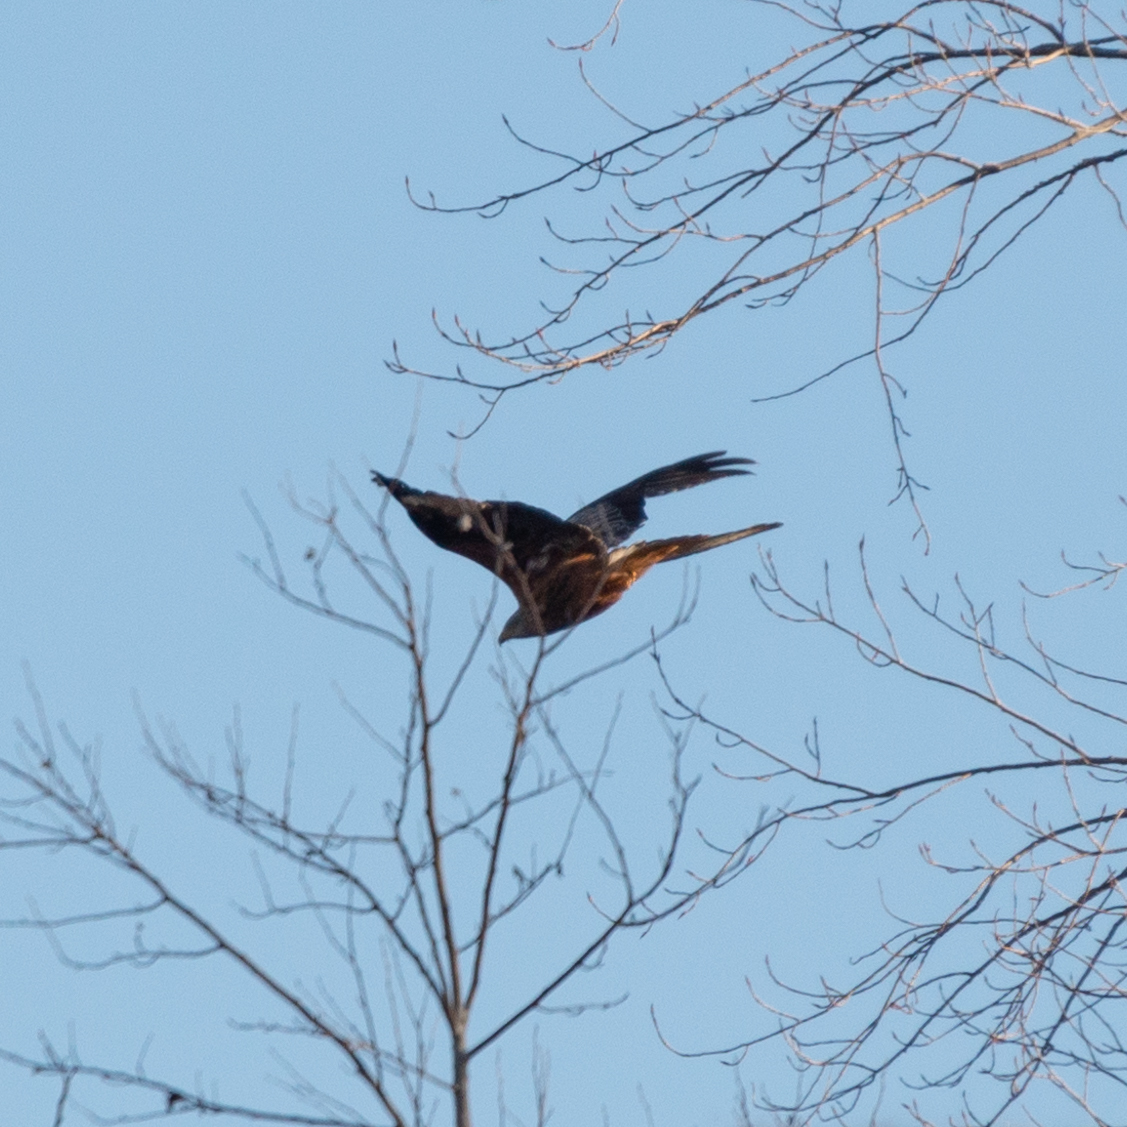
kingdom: Animalia
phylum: Chordata
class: Aves
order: Accipitriformes
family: Accipitridae
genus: Milvus
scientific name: Milvus milvus
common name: Red kite
